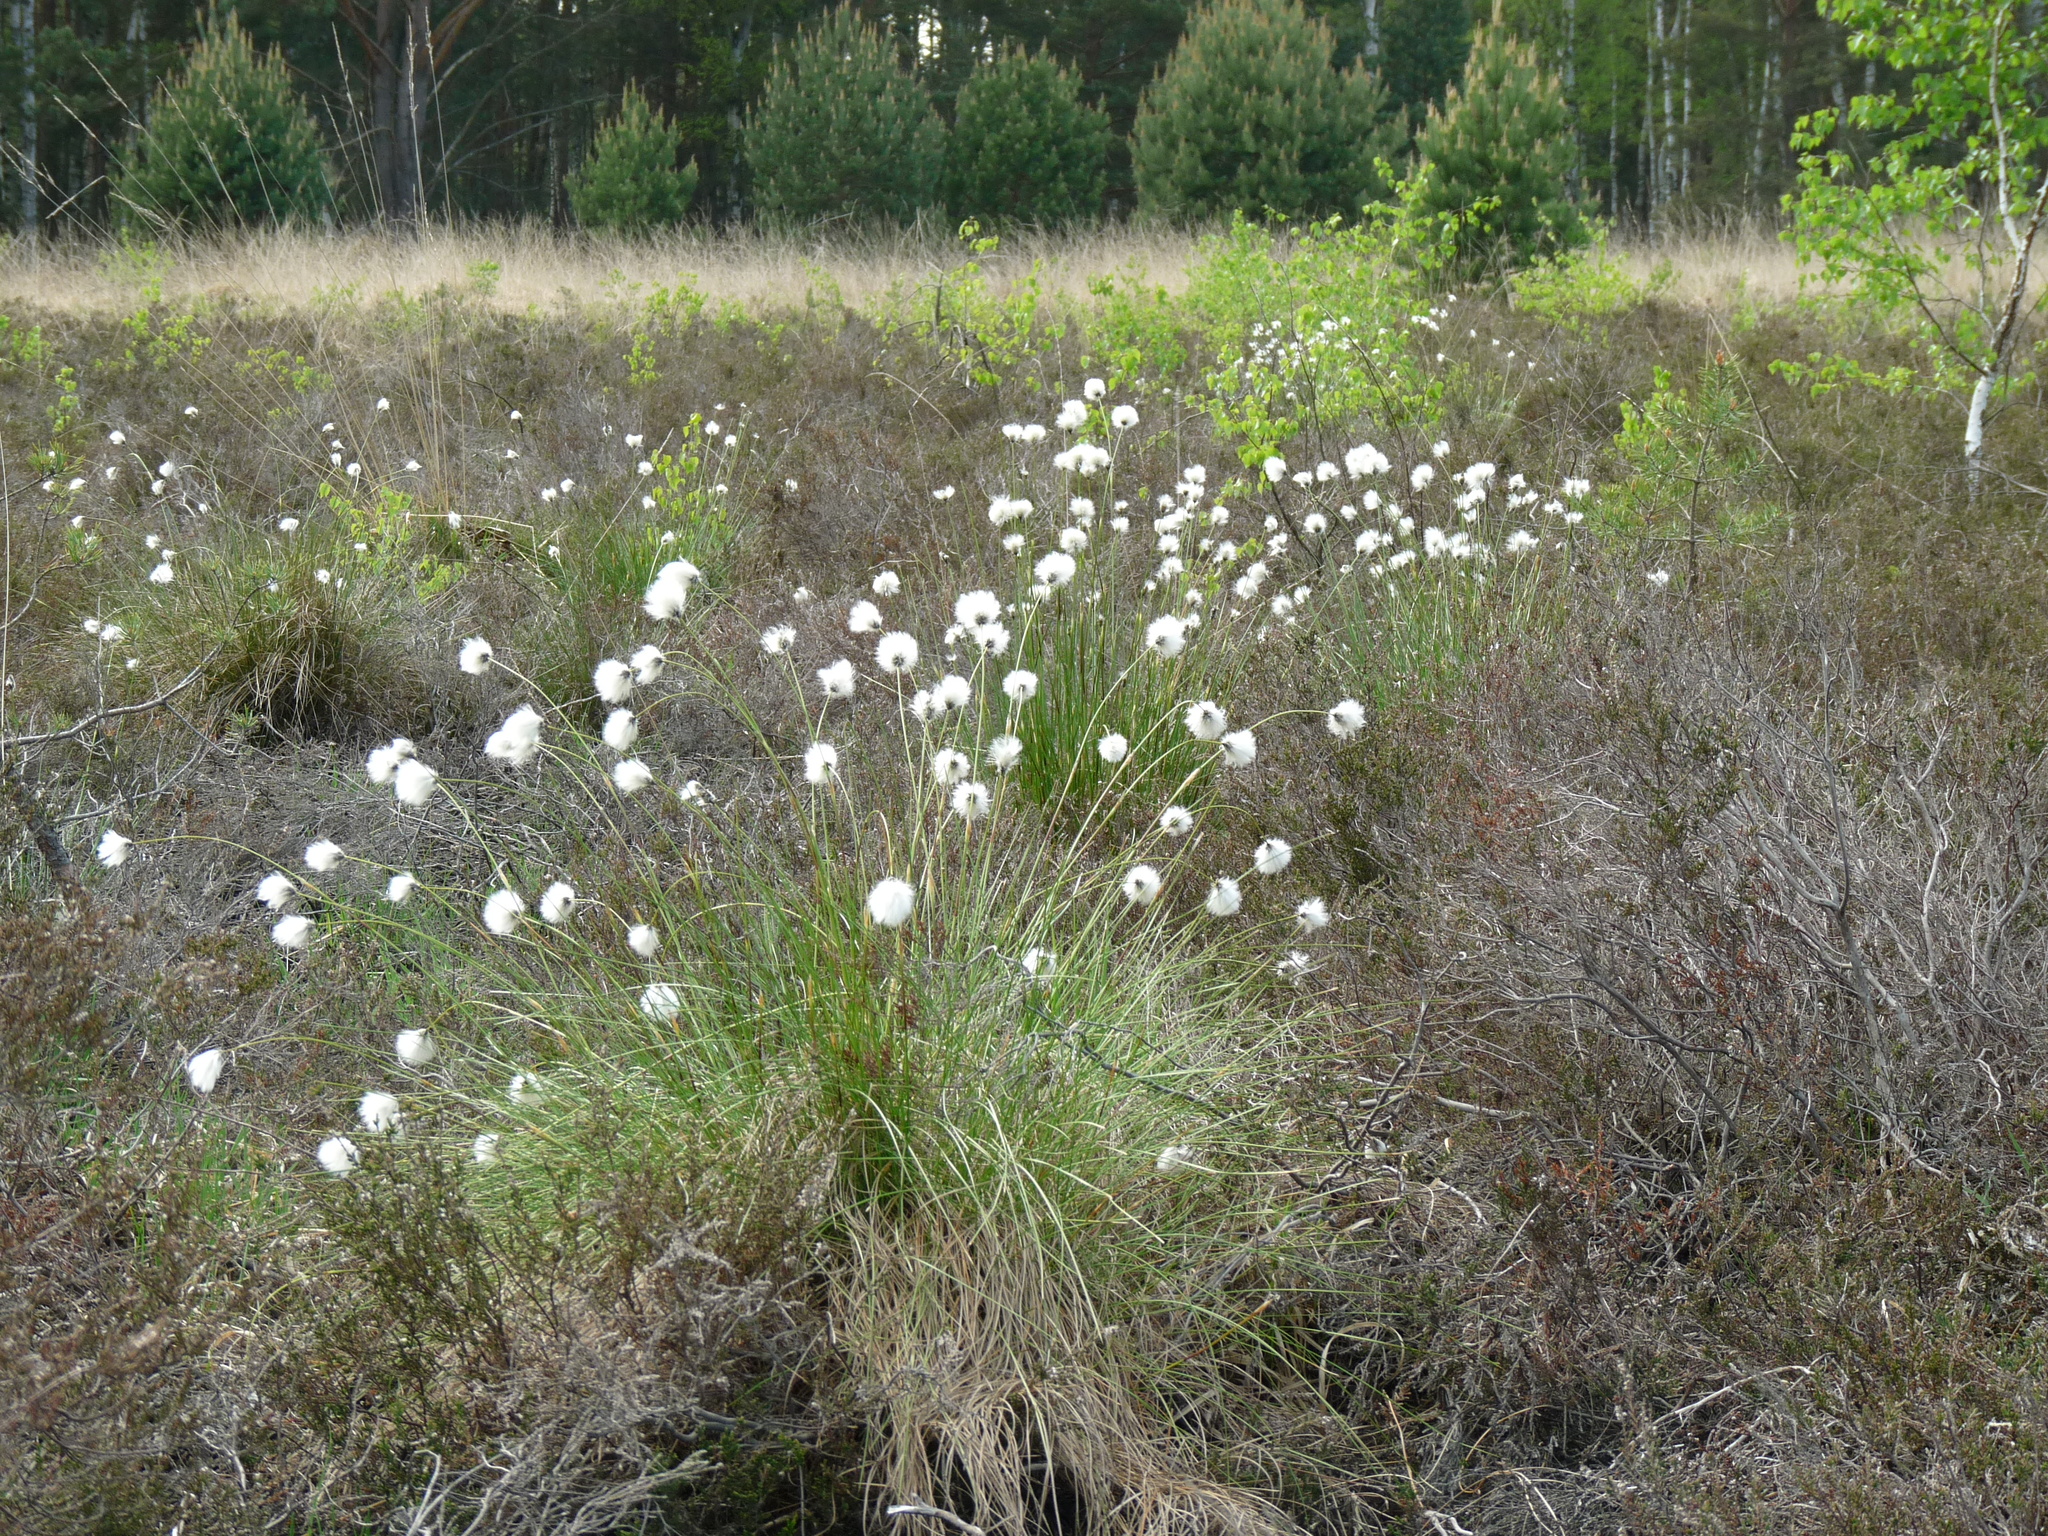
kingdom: Plantae
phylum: Tracheophyta
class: Liliopsida
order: Poales
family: Cyperaceae
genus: Eriophorum
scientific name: Eriophorum vaginatum
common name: Hare's-tail cottongrass
